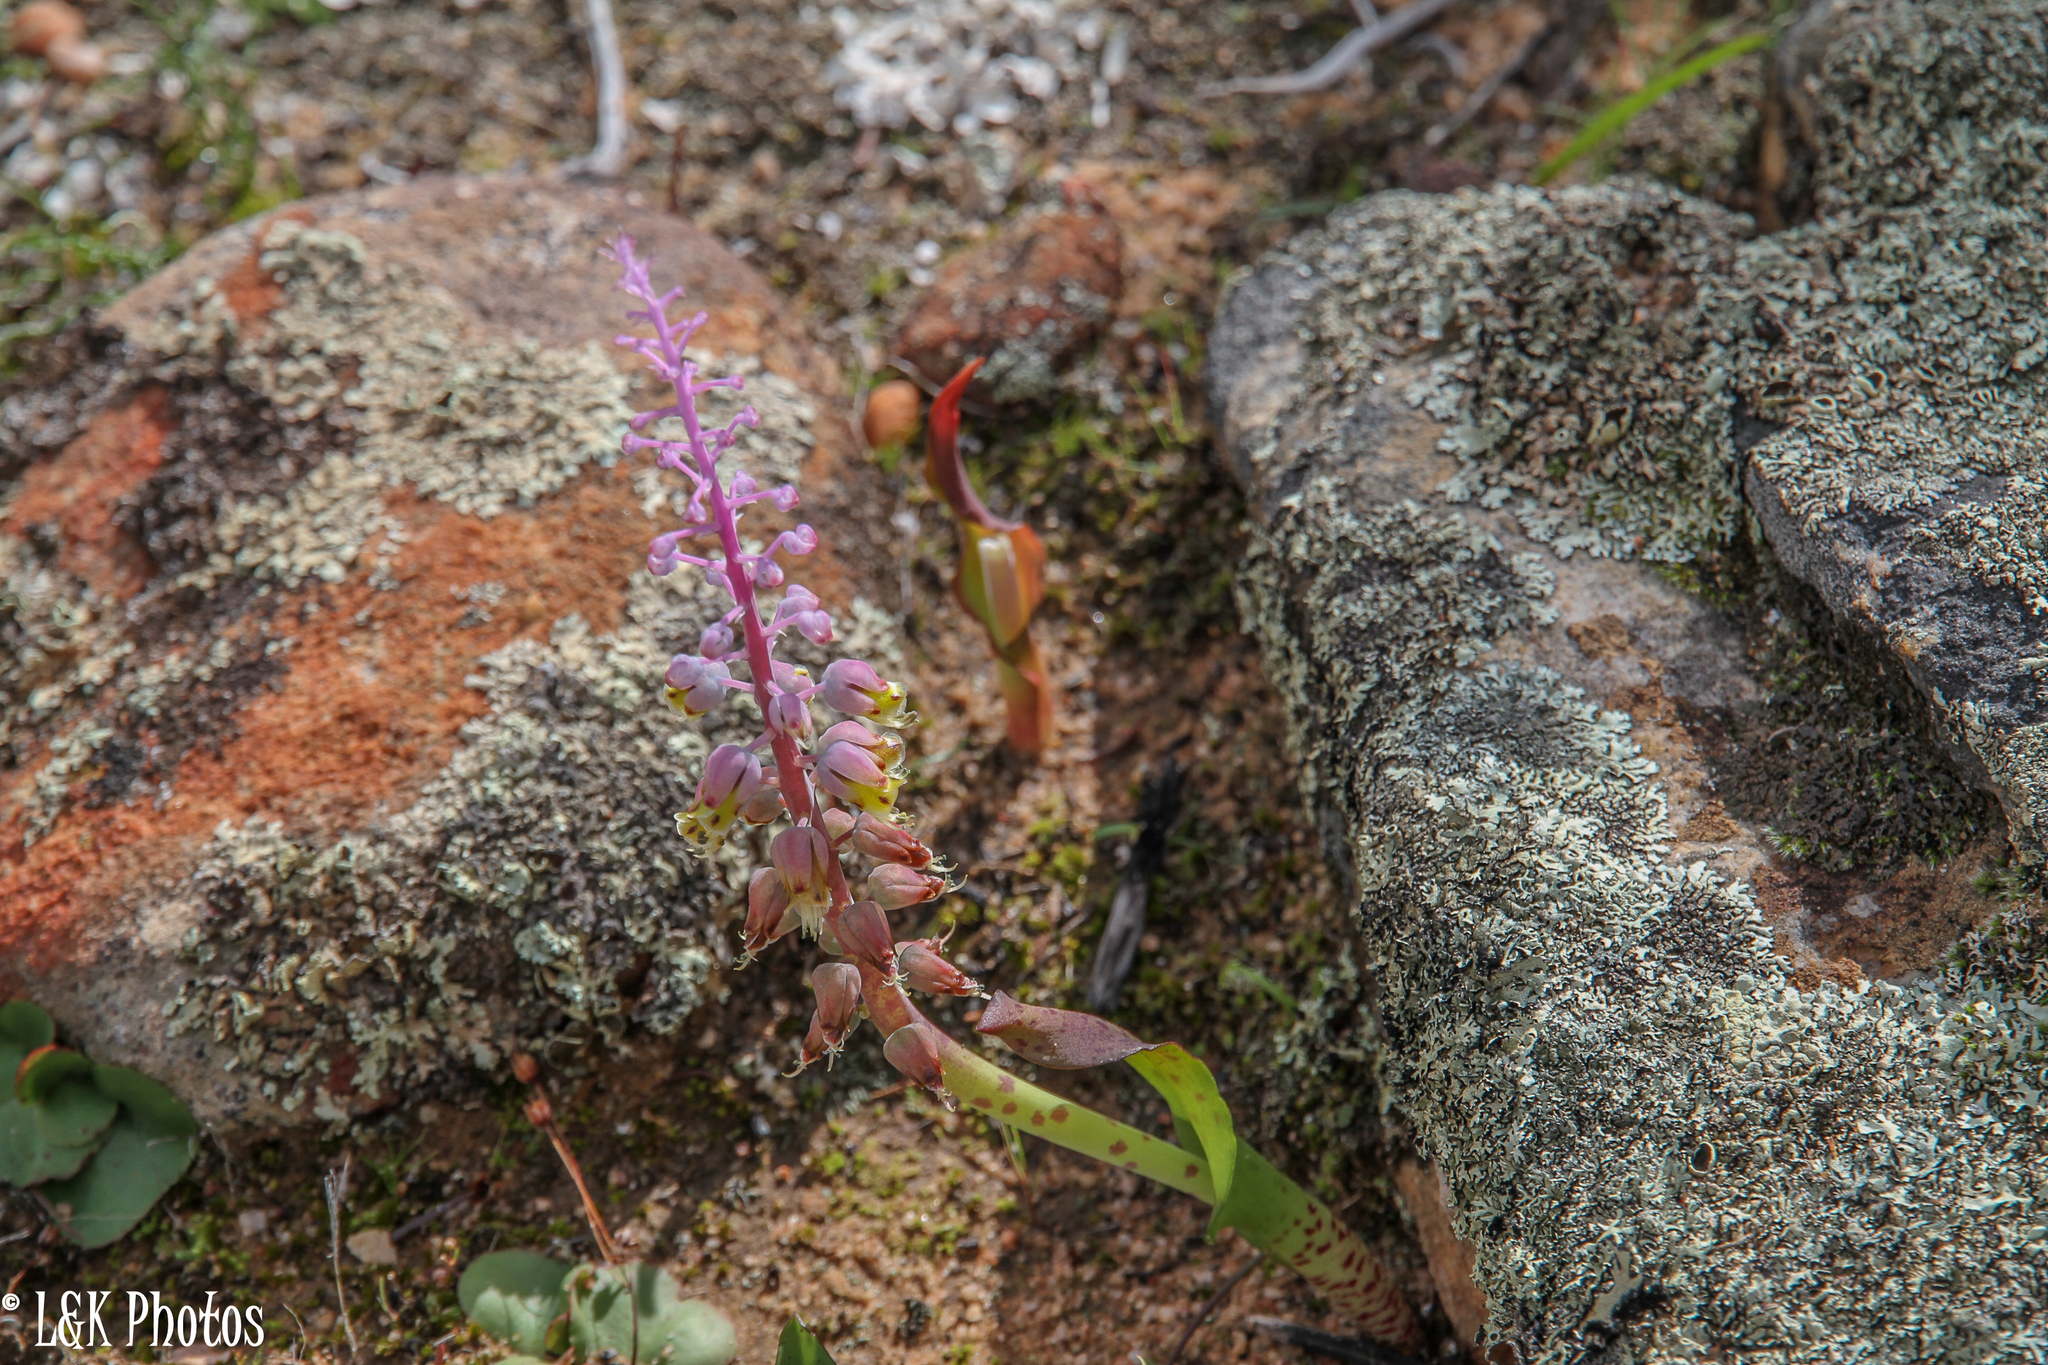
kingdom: Plantae
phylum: Tracheophyta
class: Liliopsida
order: Asparagales
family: Asparagaceae
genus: Lachenalia
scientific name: Lachenalia mutabilis
